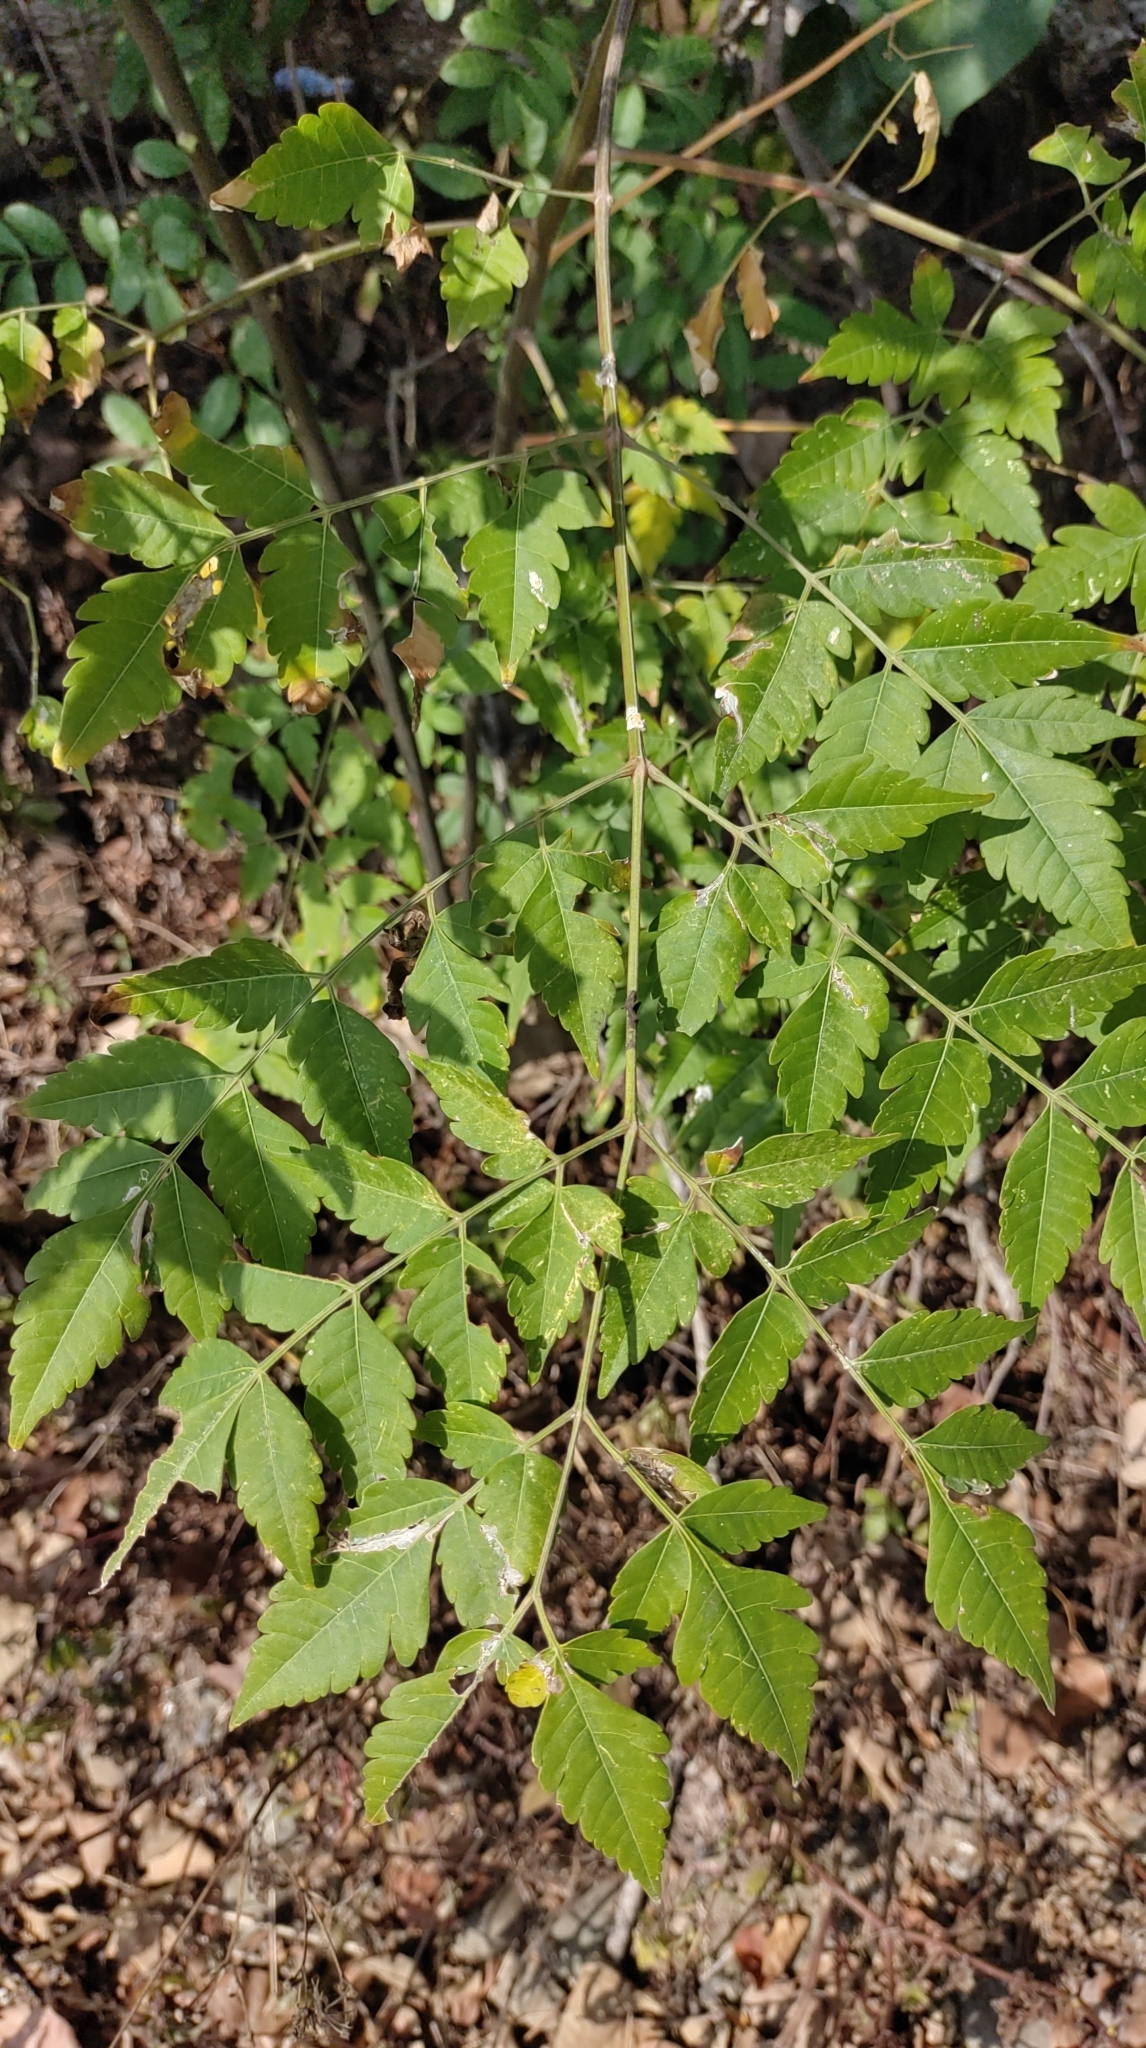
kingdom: Plantae
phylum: Tracheophyta
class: Magnoliopsida
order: Sapindales
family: Sapindaceae
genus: Koelreuteria
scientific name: Koelreuteria elegans
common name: Chinese flame tree
